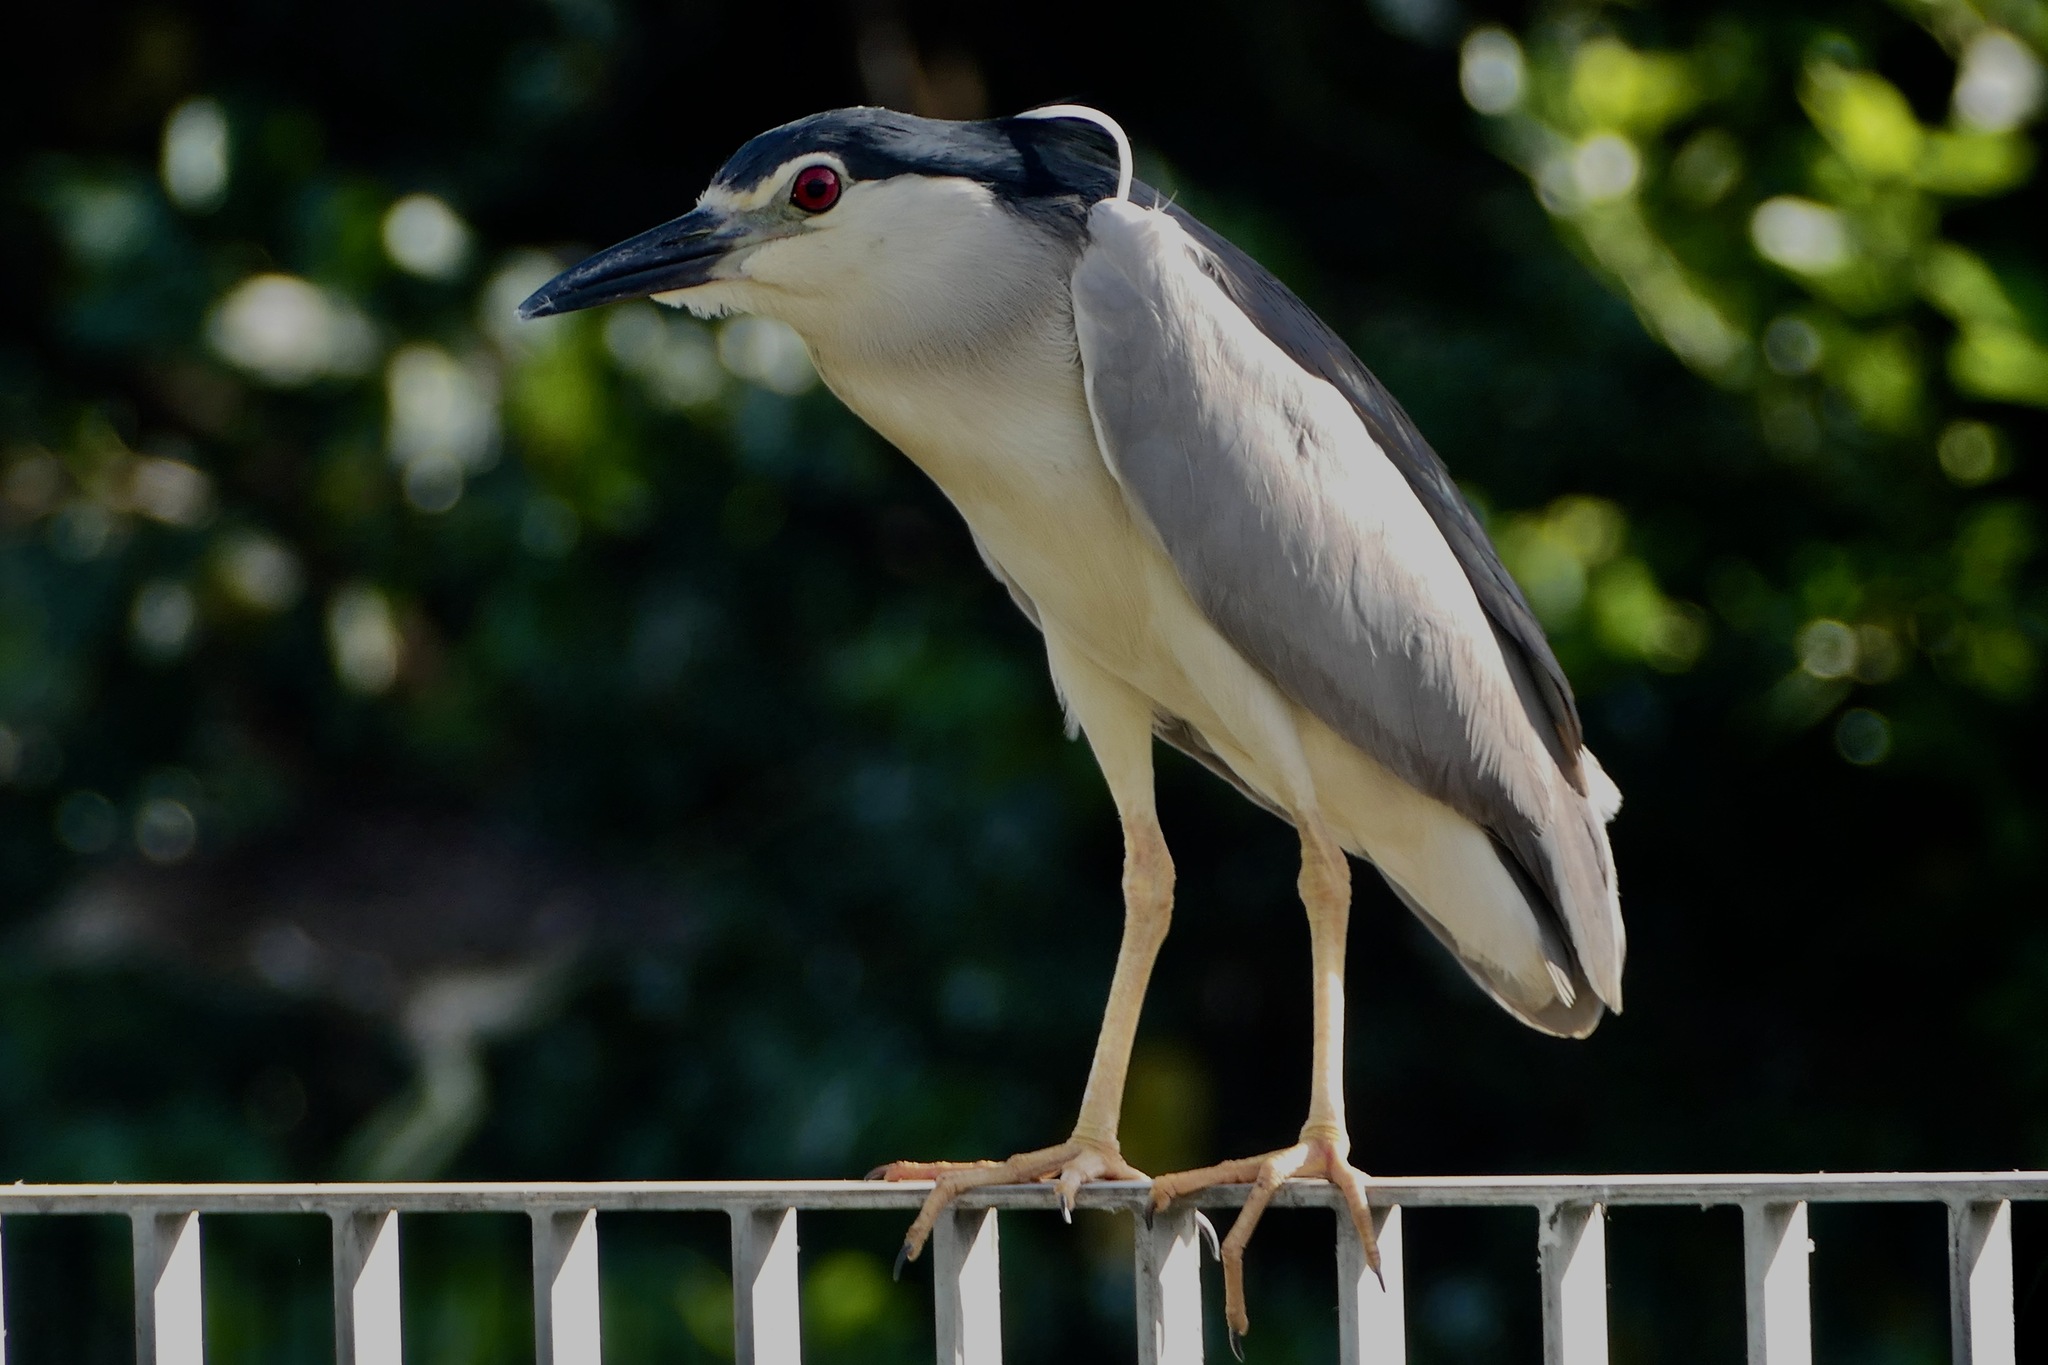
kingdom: Animalia
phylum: Chordata
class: Aves
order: Pelecaniformes
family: Ardeidae
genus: Nycticorax
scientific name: Nycticorax nycticorax
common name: Black-crowned night heron
